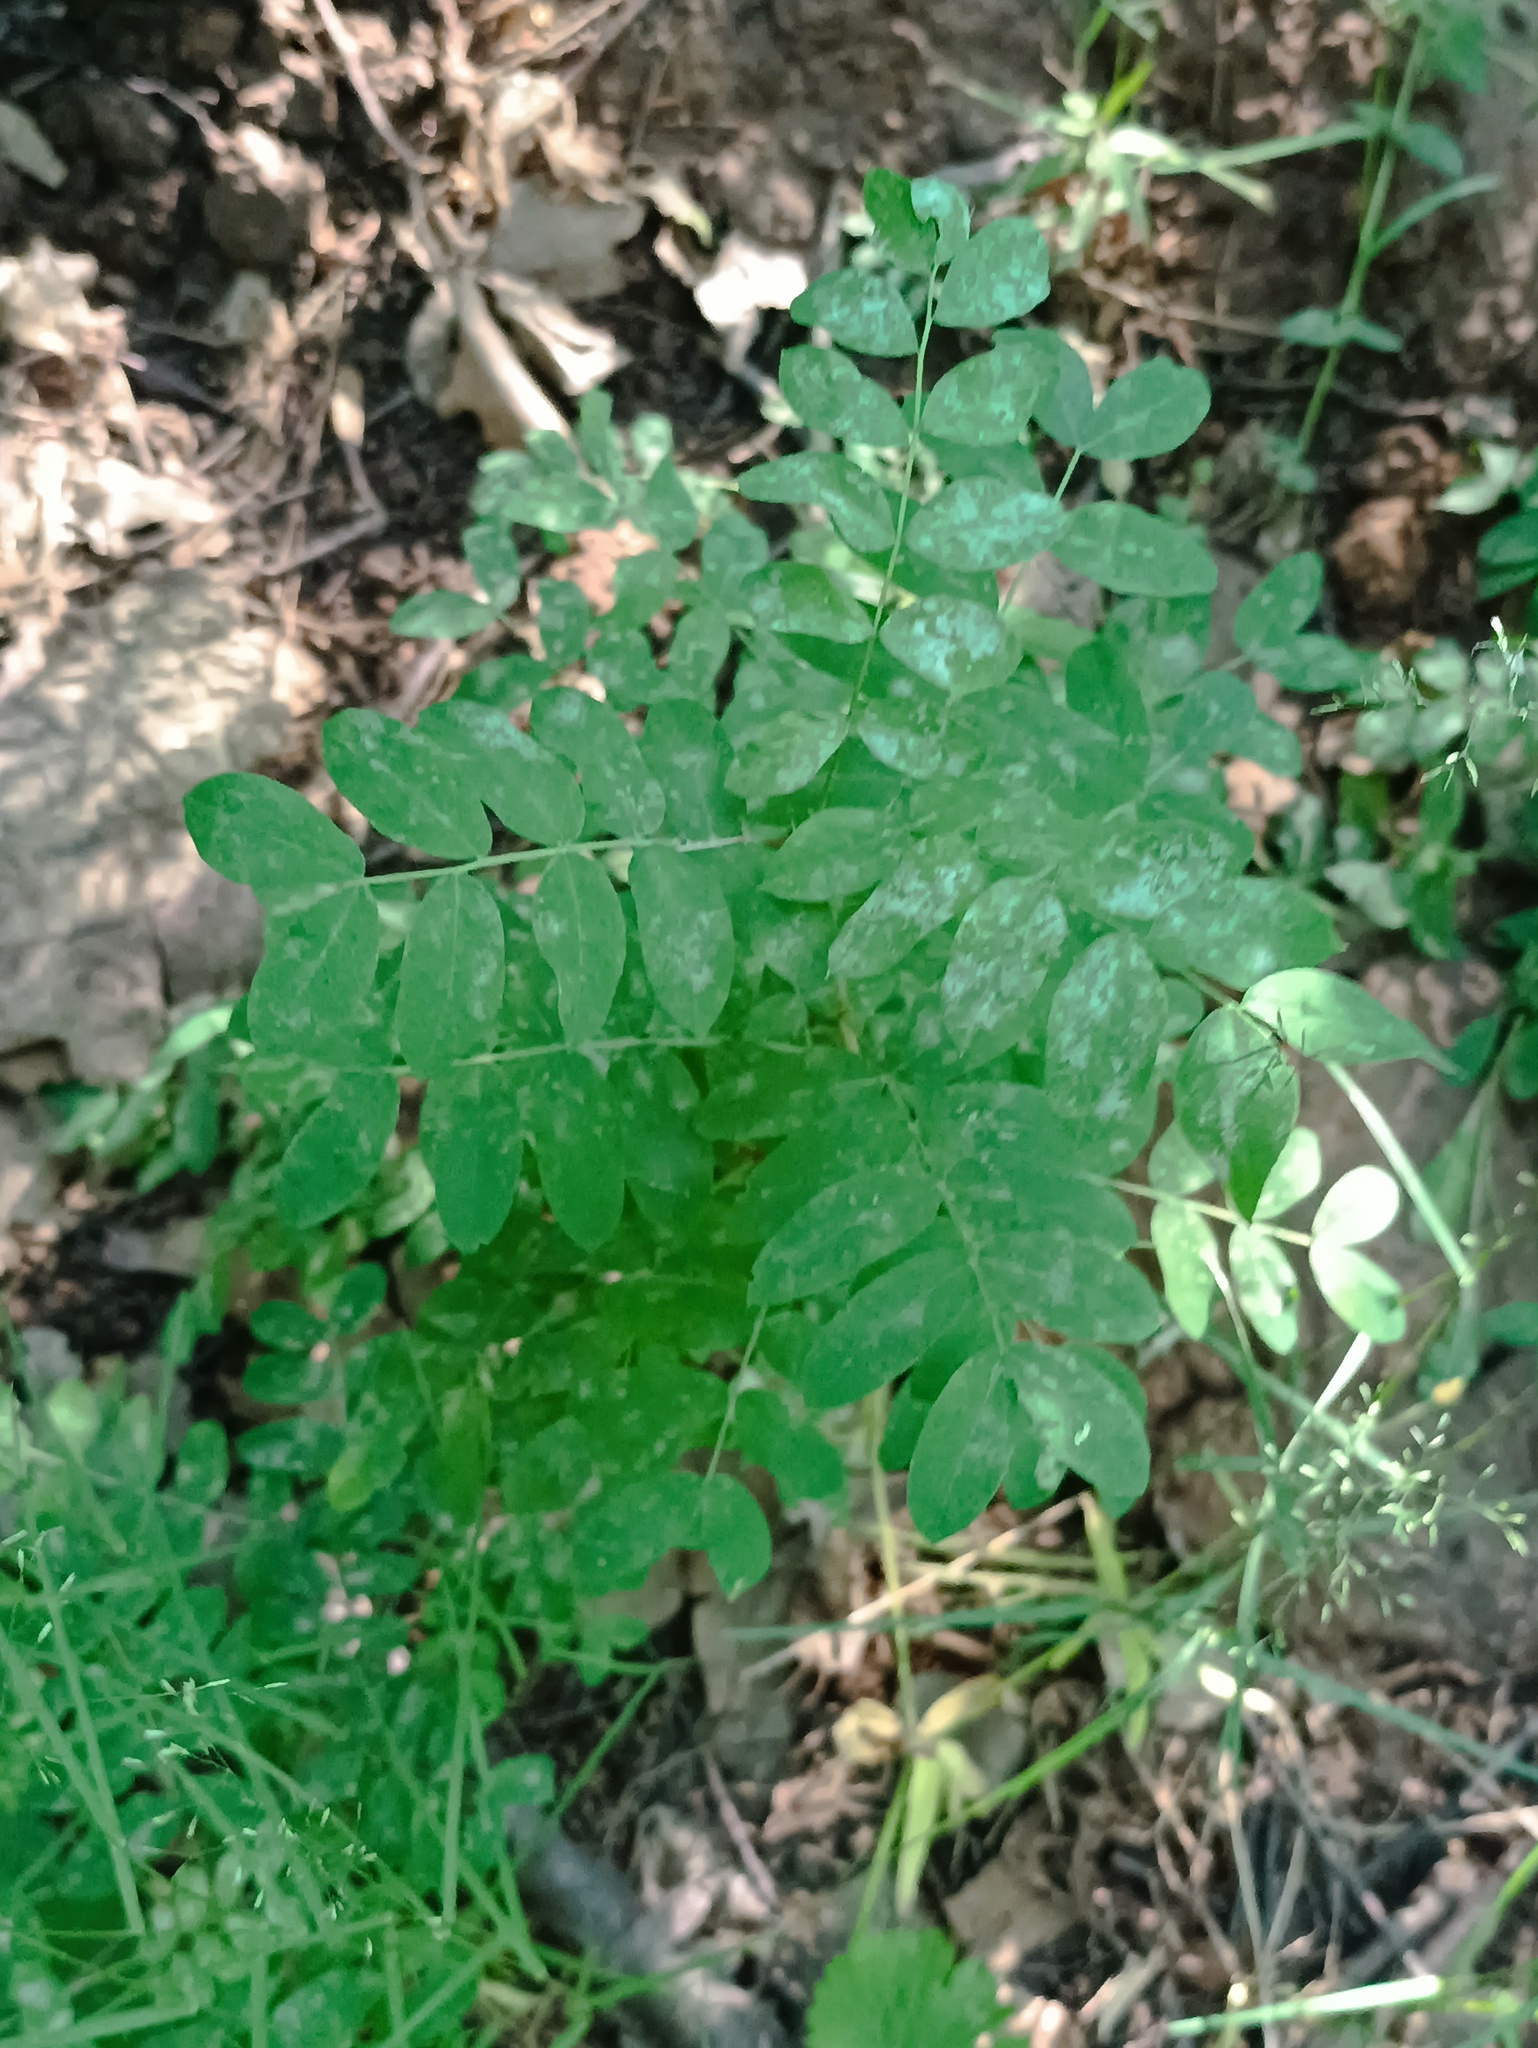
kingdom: Plantae
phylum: Tracheophyta
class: Magnoliopsida
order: Fabales
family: Fabaceae
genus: Caragana
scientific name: Caragana arborescens
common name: Siberian peashrub
